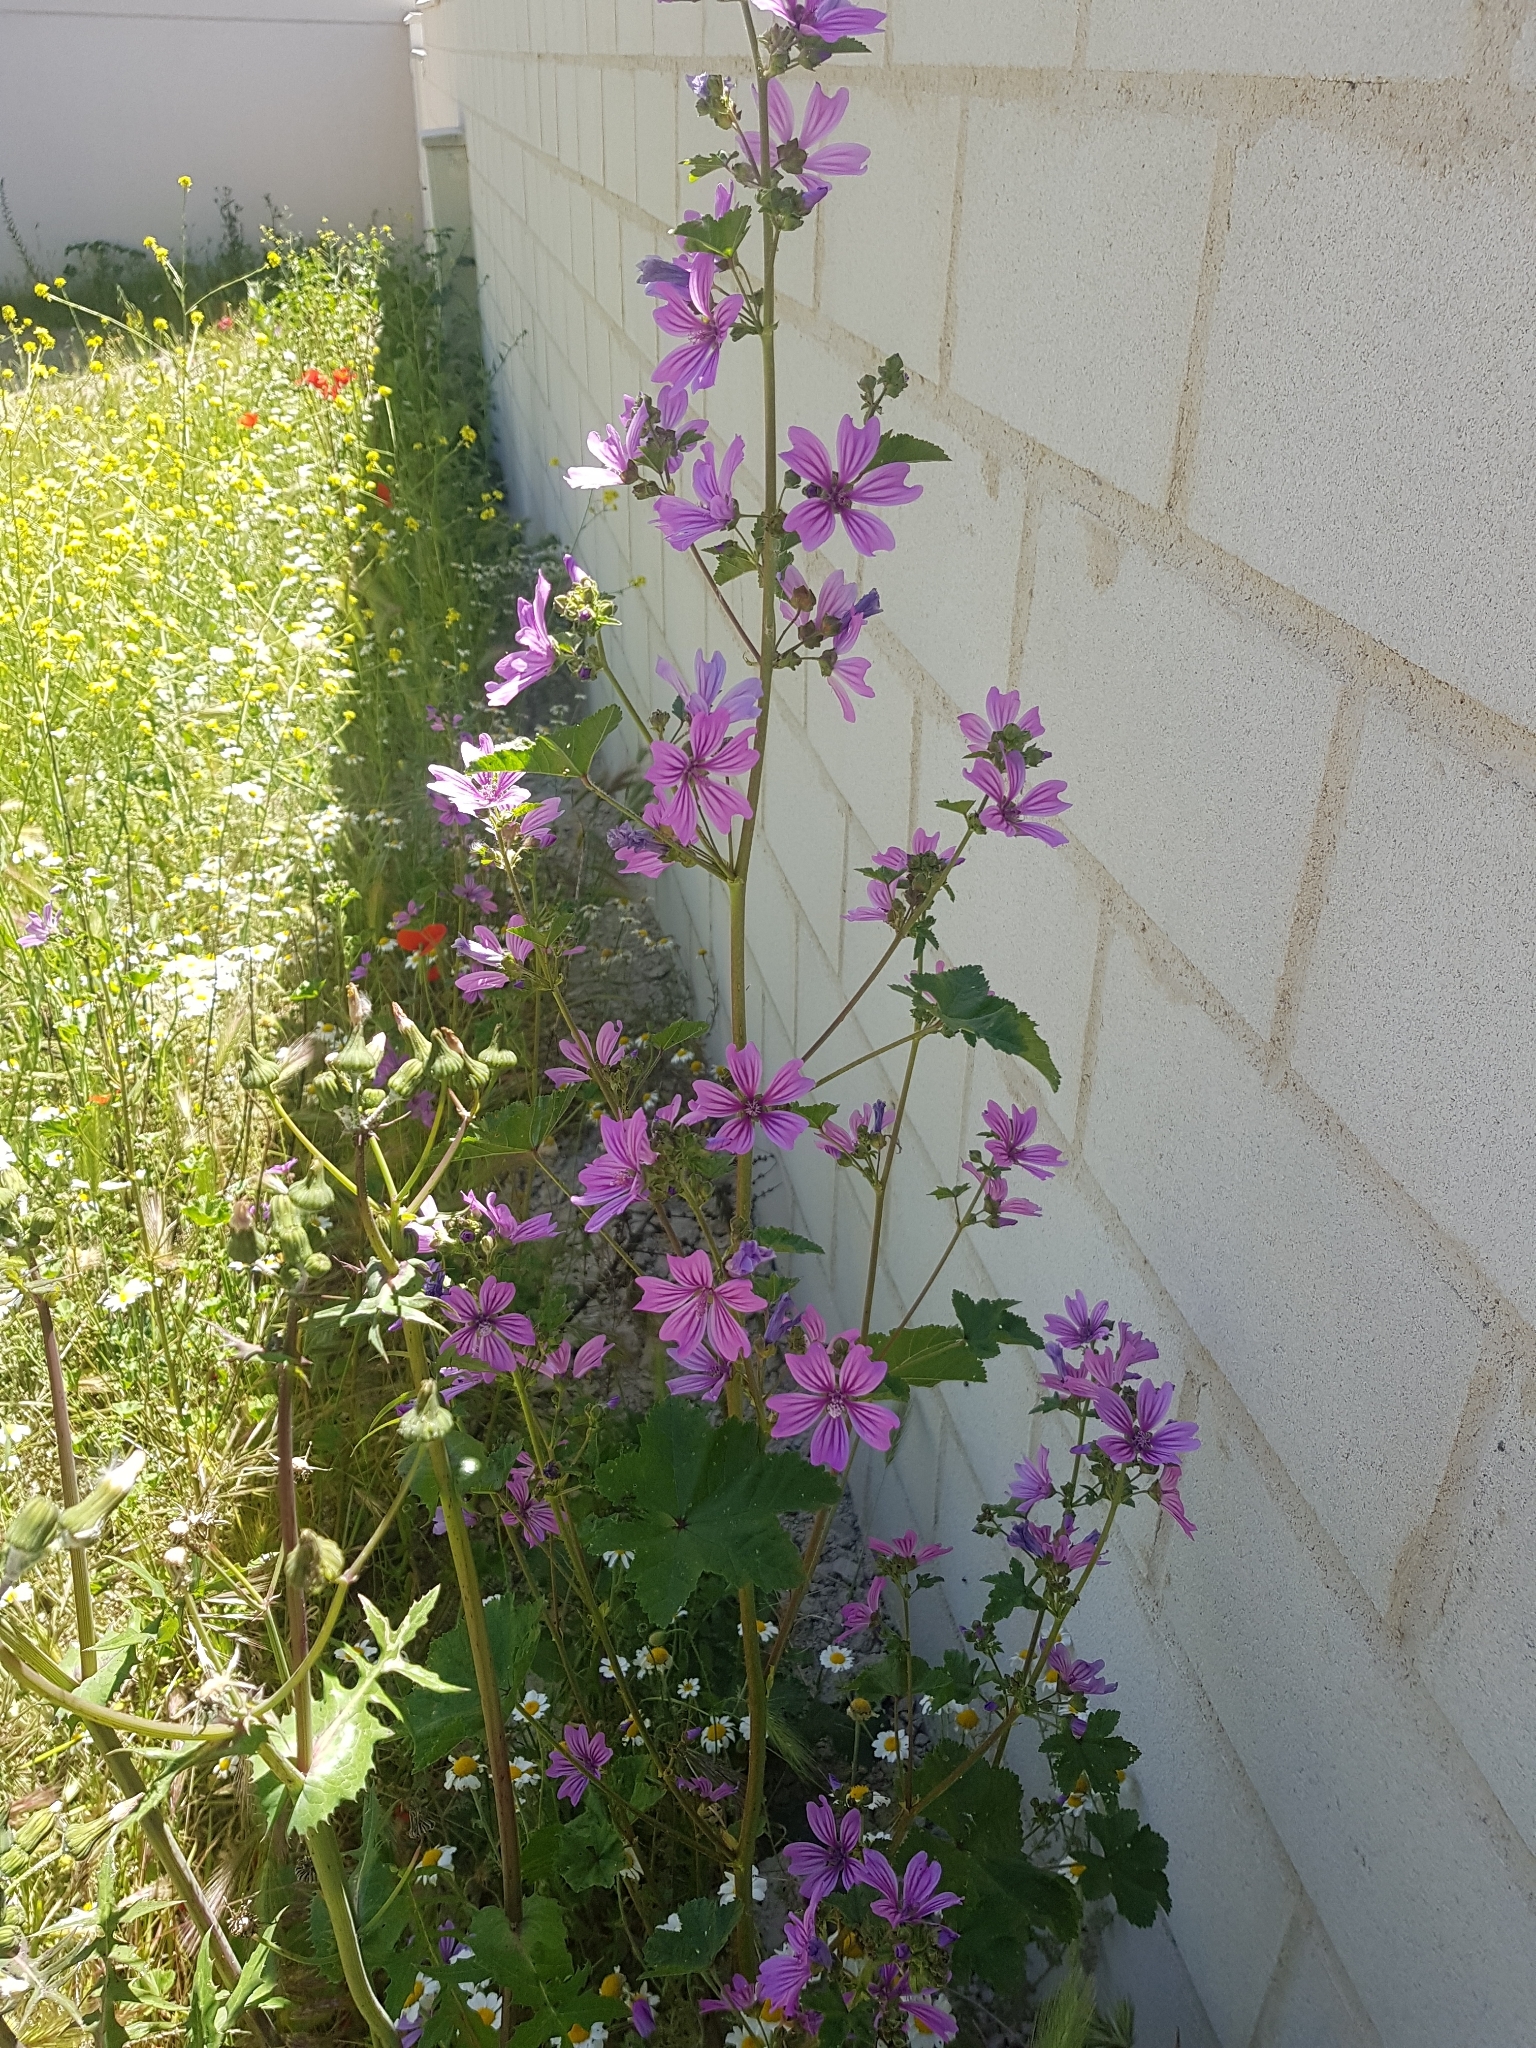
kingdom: Plantae
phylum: Tracheophyta
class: Magnoliopsida
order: Malvales
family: Malvaceae
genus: Malva
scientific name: Malva sylvestris
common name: Common mallow
